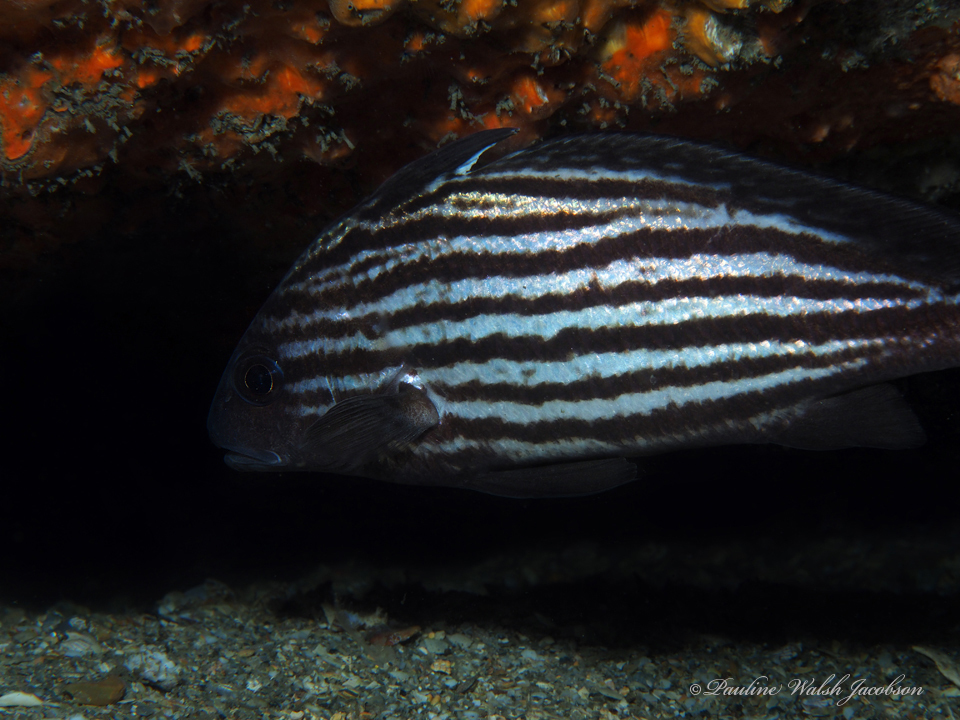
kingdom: Animalia
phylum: Chordata
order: Perciformes
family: Sciaenidae
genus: Pareques
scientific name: Pareques acuminatus
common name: High-hat
